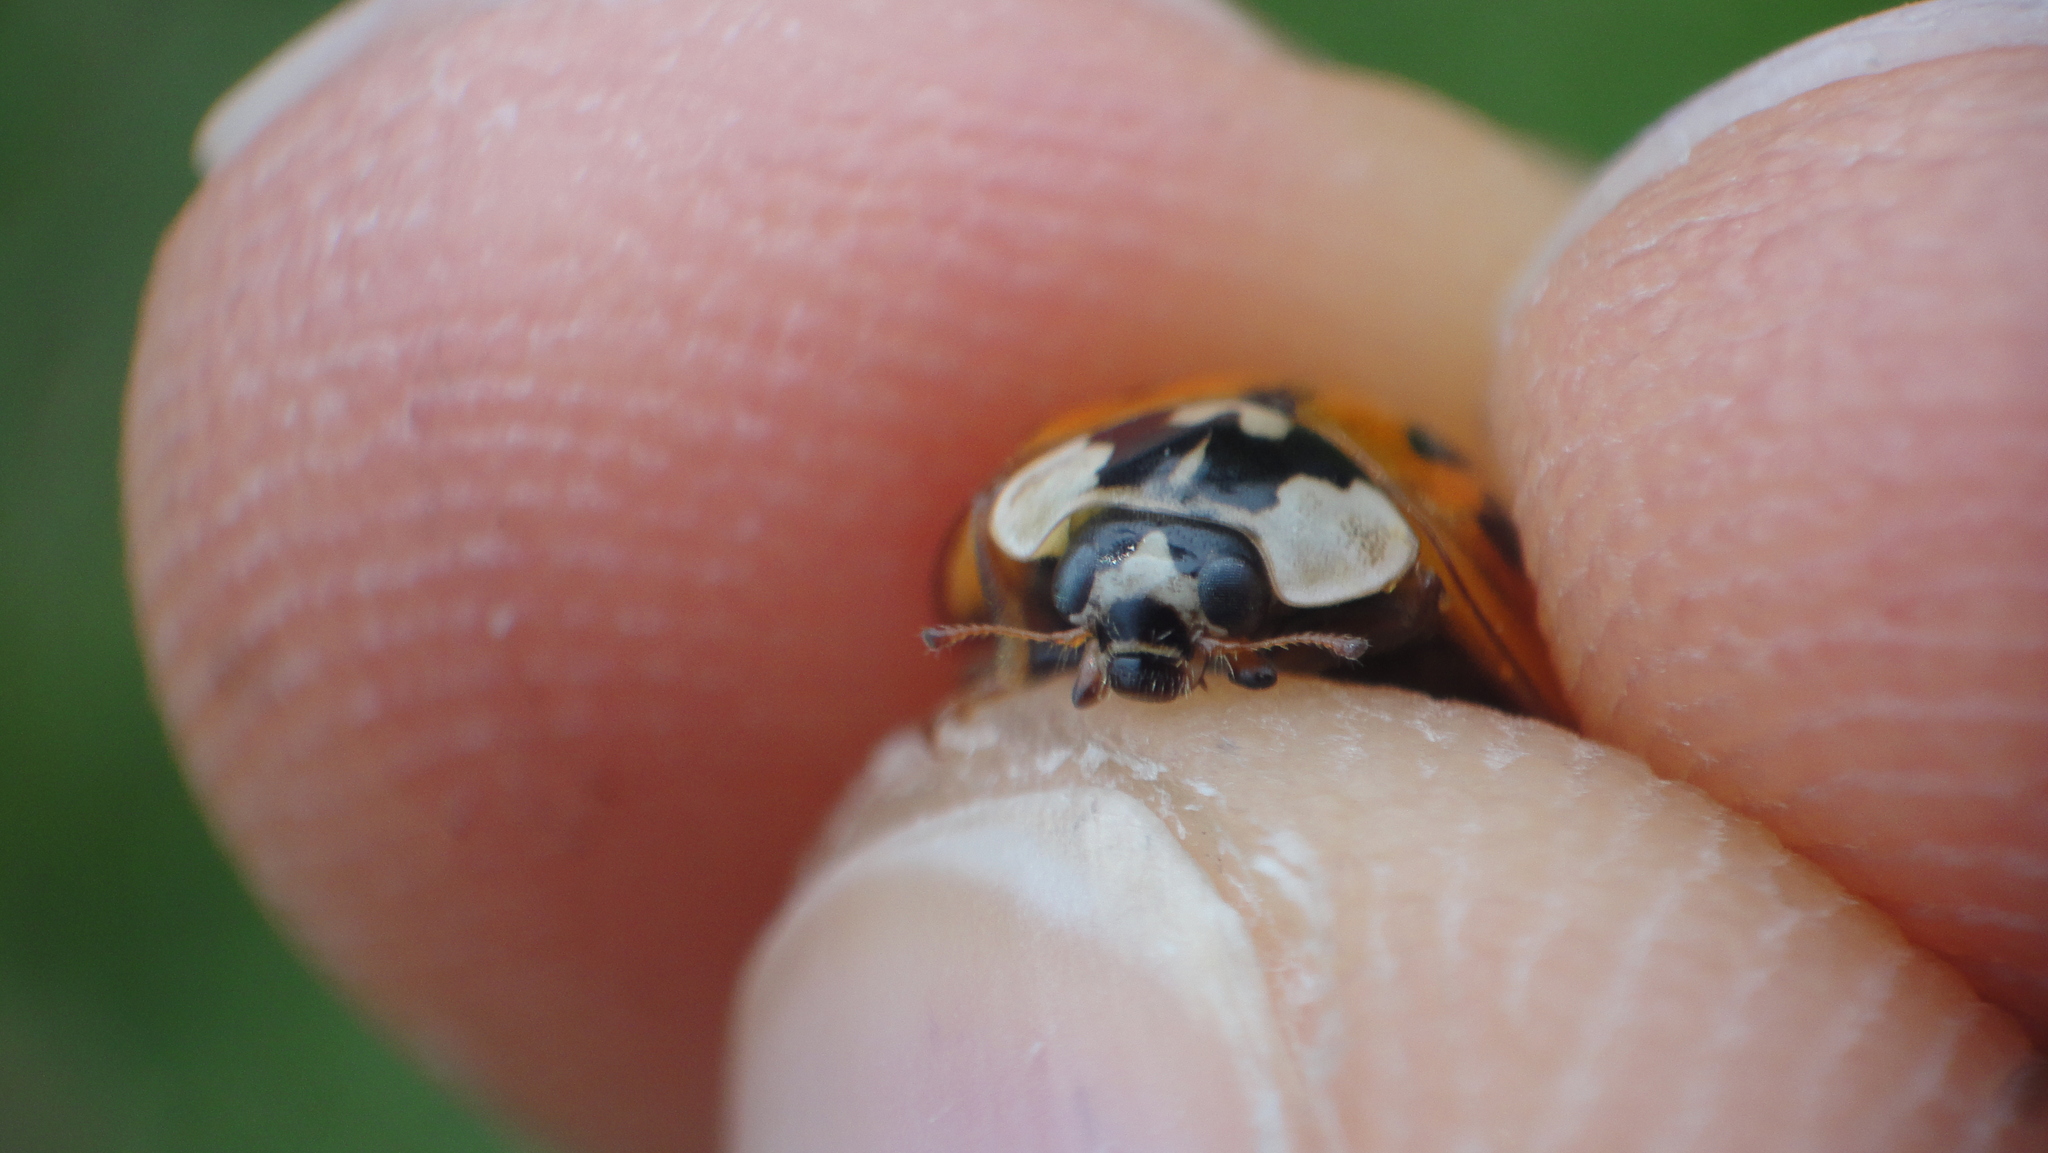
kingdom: Animalia
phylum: Arthropoda
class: Insecta
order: Coleoptera
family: Coccinellidae
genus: Harmonia
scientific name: Harmonia axyridis
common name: Harlequin ladybird
